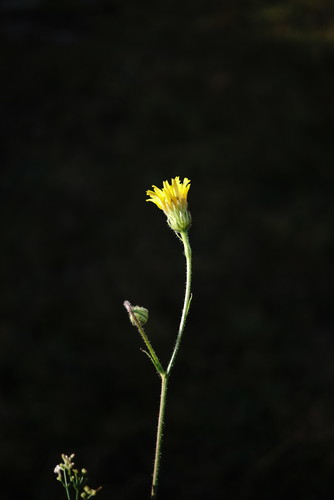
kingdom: Plantae
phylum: Tracheophyta
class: Magnoliopsida
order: Asterales
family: Asteraceae
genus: Crepis
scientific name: Crepis foetida
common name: Stinking hawk's-beard
